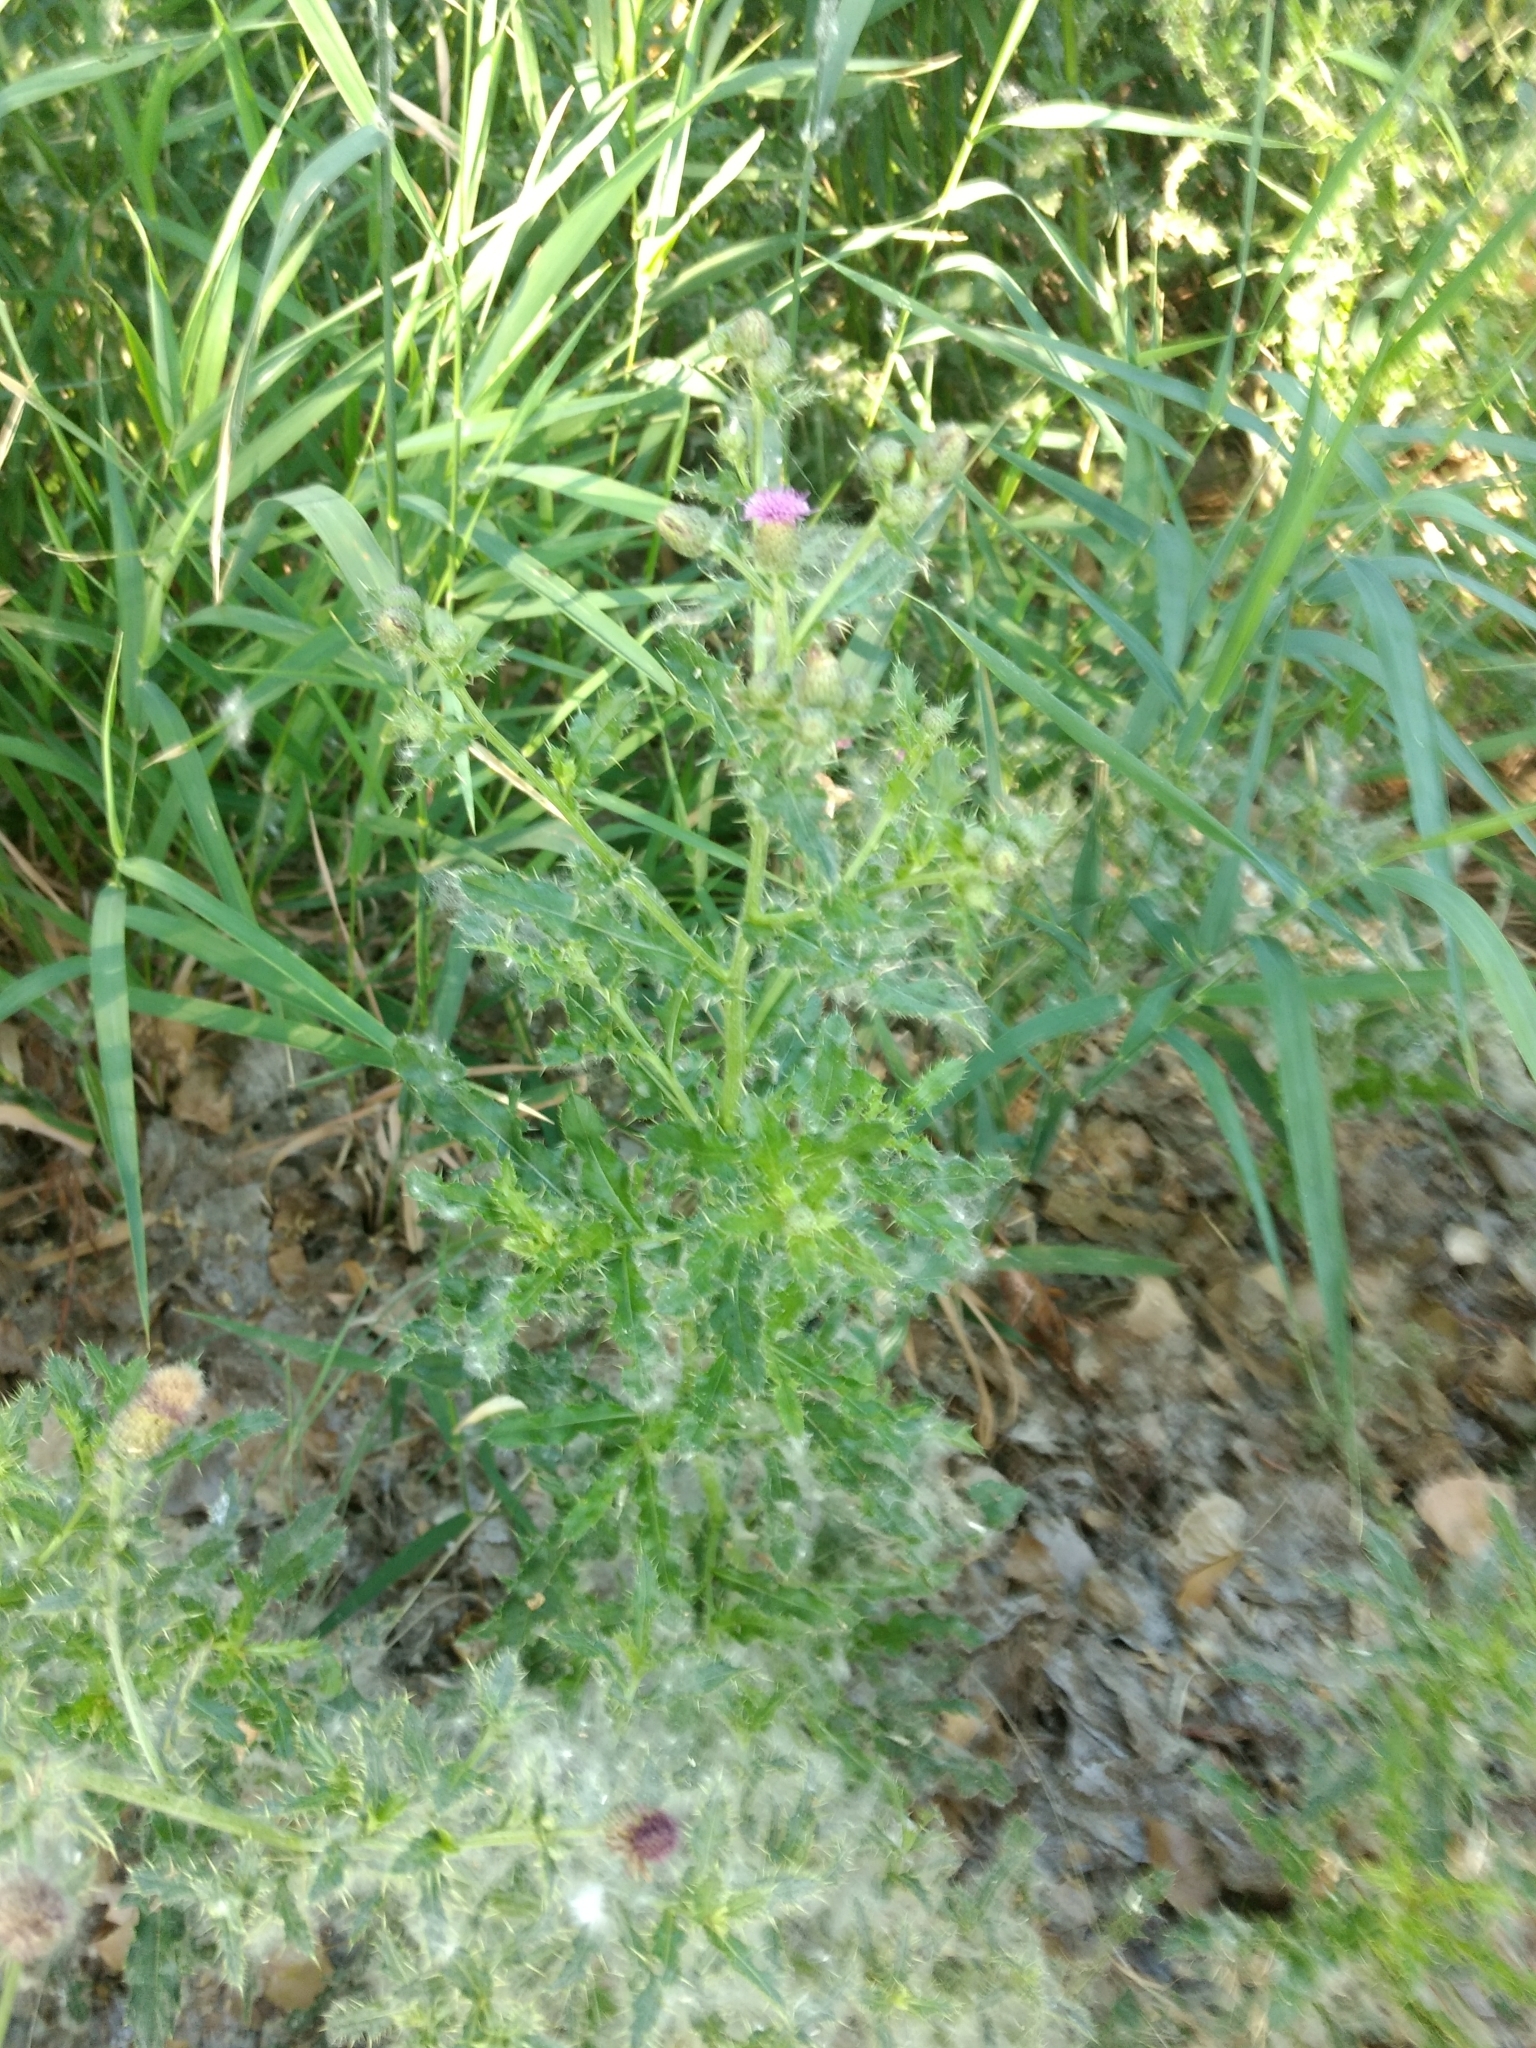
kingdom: Plantae
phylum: Tracheophyta
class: Magnoliopsida
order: Asterales
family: Asteraceae
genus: Cirsium
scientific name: Cirsium arvense
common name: Creeping thistle
